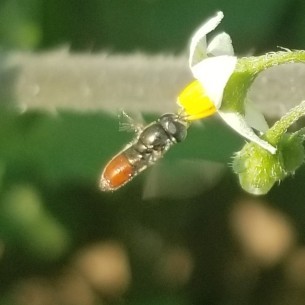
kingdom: Animalia
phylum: Arthropoda
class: Insecta
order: Diptera
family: Syrphidae
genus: Paragus
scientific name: Paragus haemorrhous
